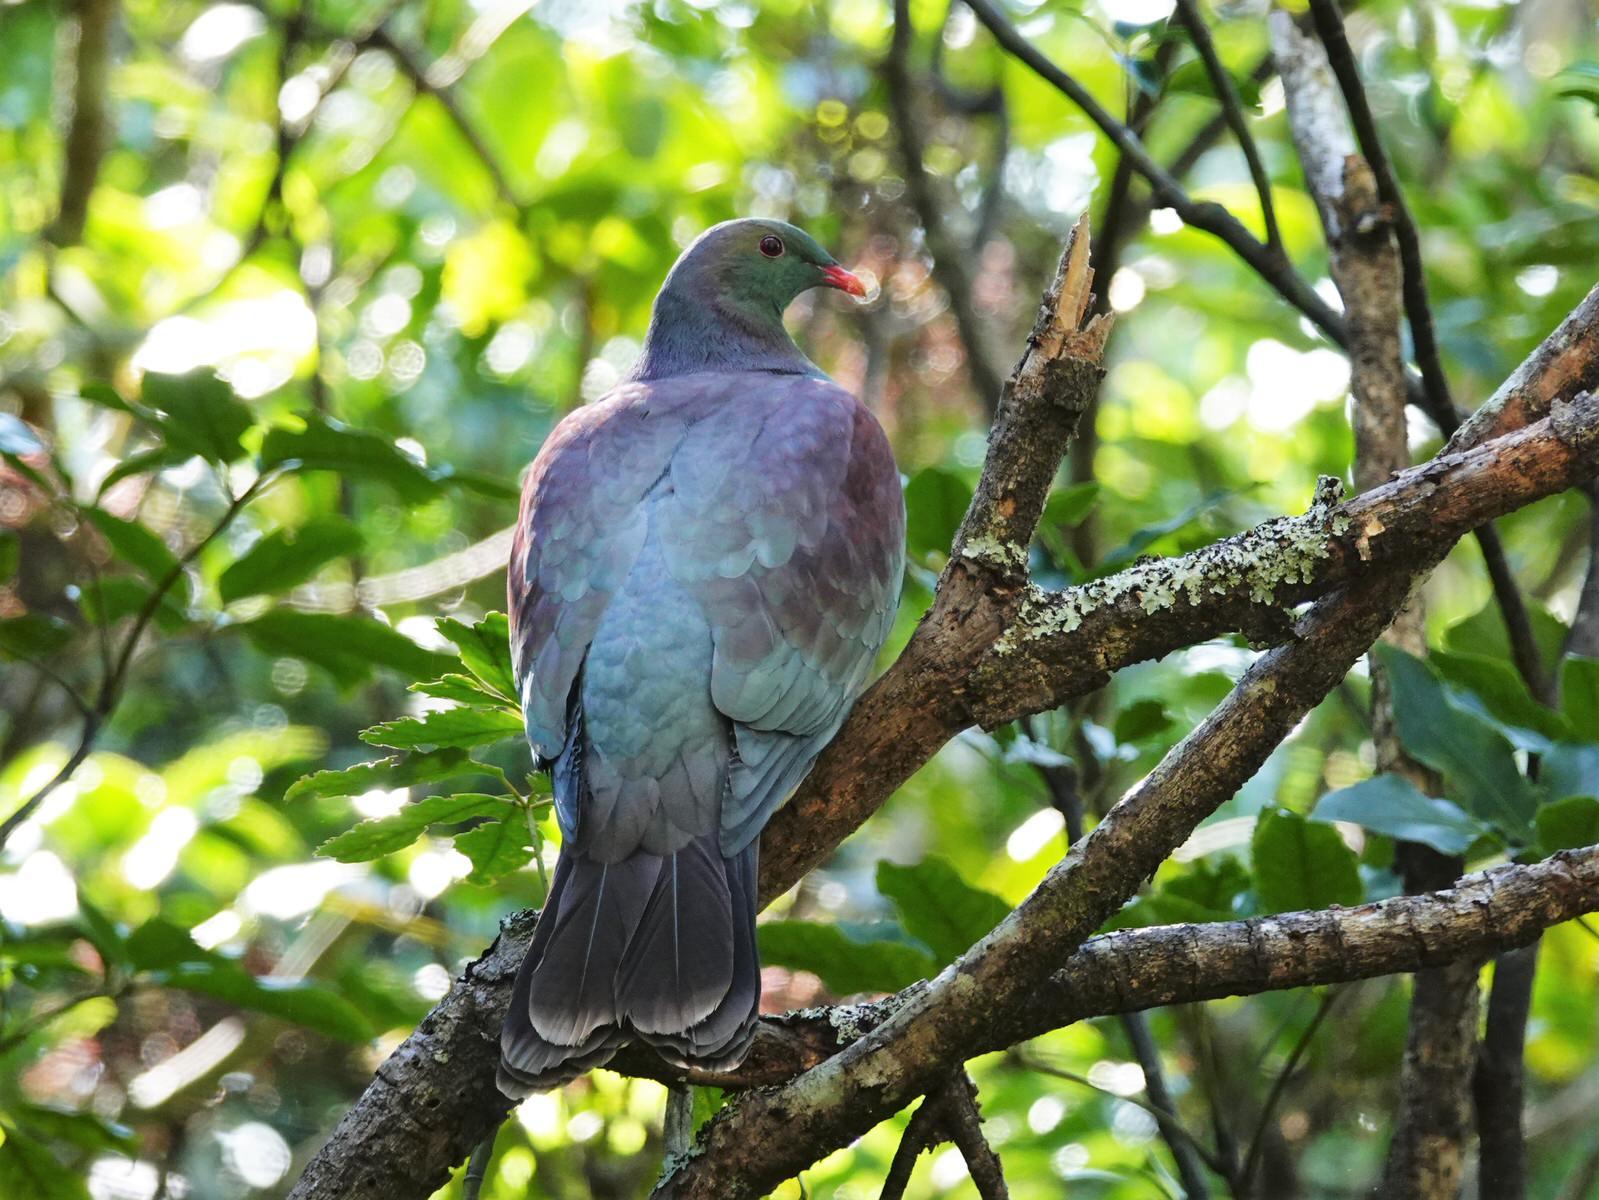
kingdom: Animalia
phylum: Chordata
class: Aves
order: Columbiformes
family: Columbidae
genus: Hemiphaga
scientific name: Hemiphaga novaeseelandiae
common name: New zealand pigeon
